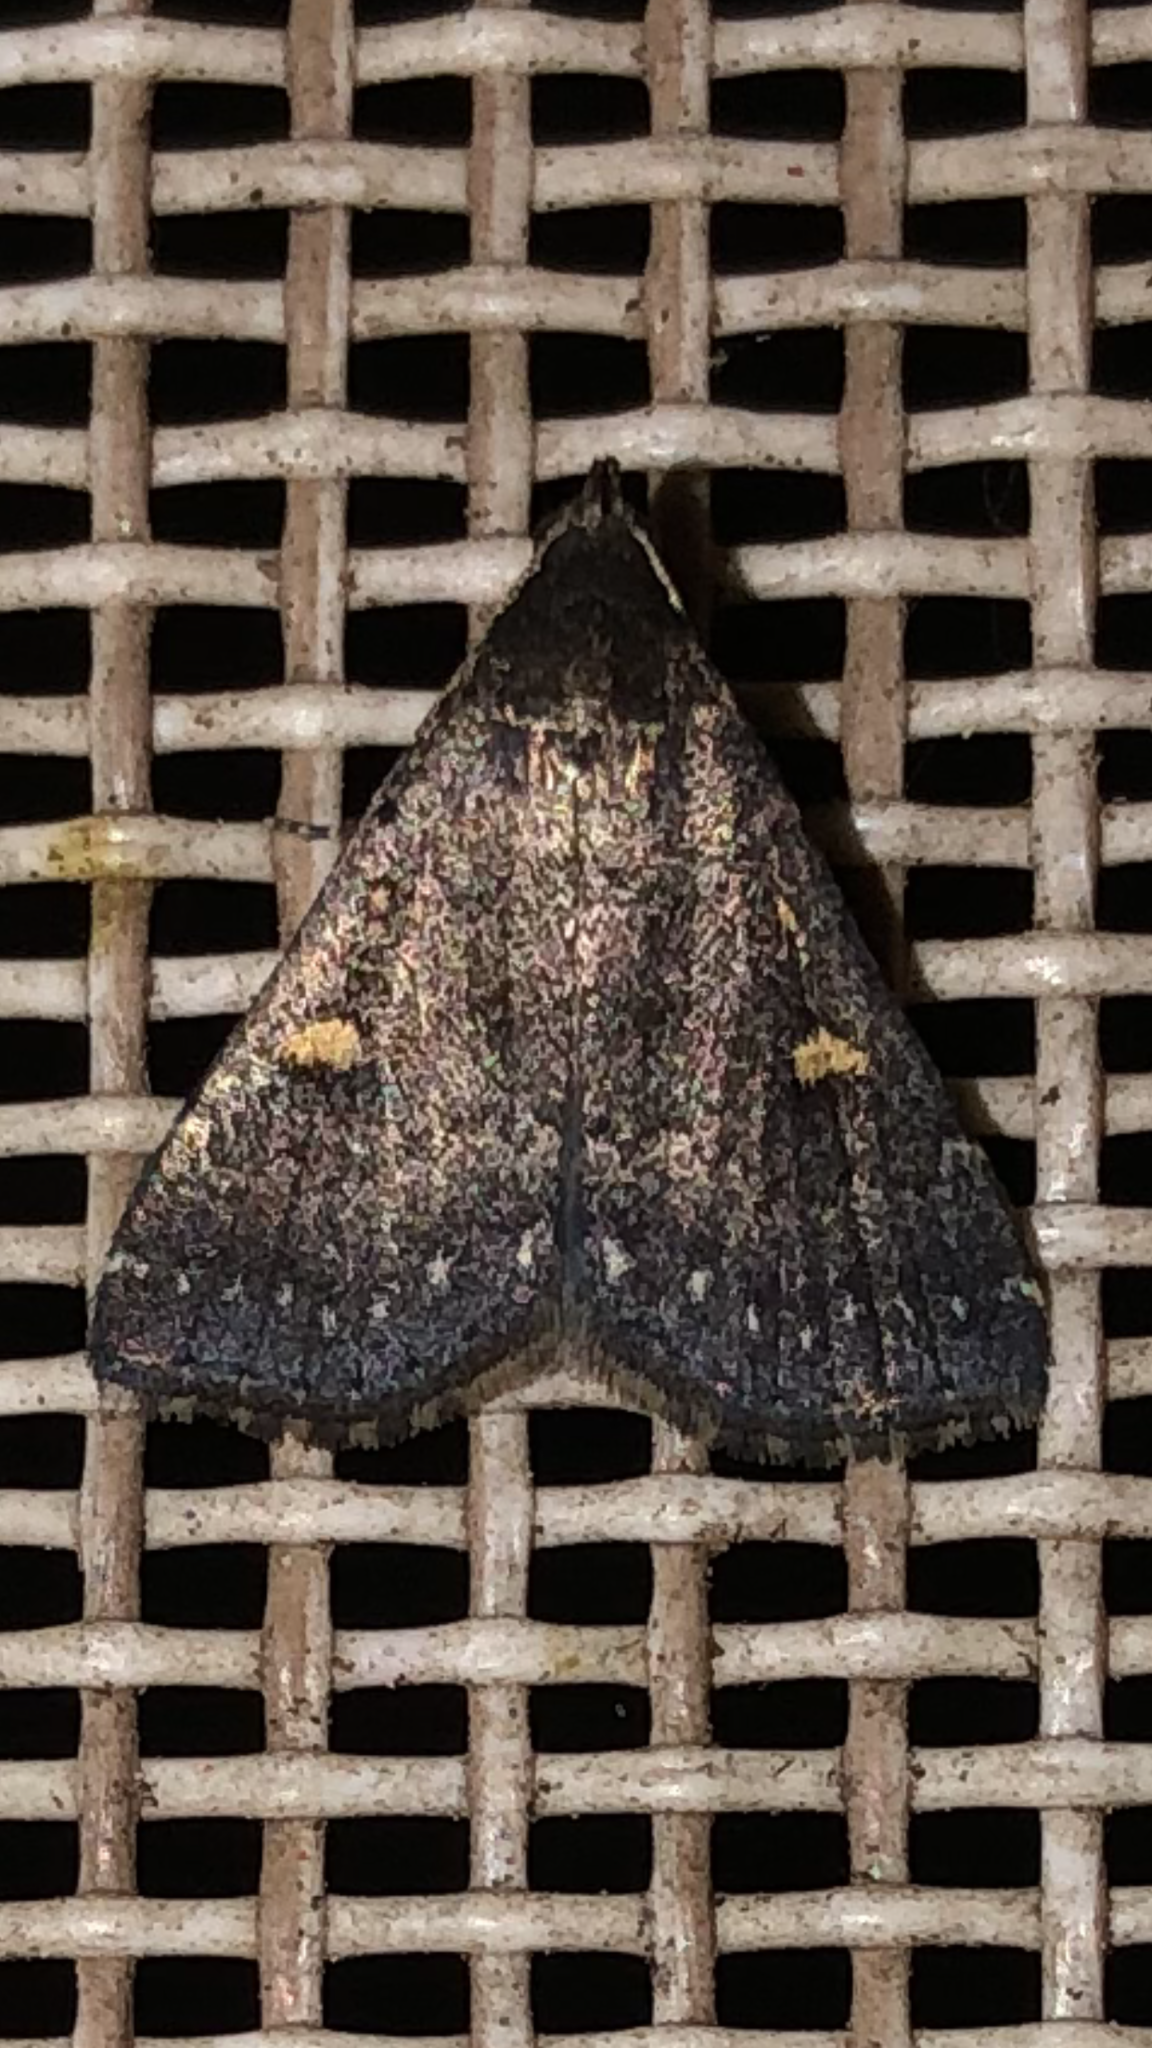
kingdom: Animalia
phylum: Arthropoda
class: Insecta
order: Lepidoptera
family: Erebidae
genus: Tetanolita
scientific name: Tetanolita mynesalis
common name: Smoky tetanolita moth
